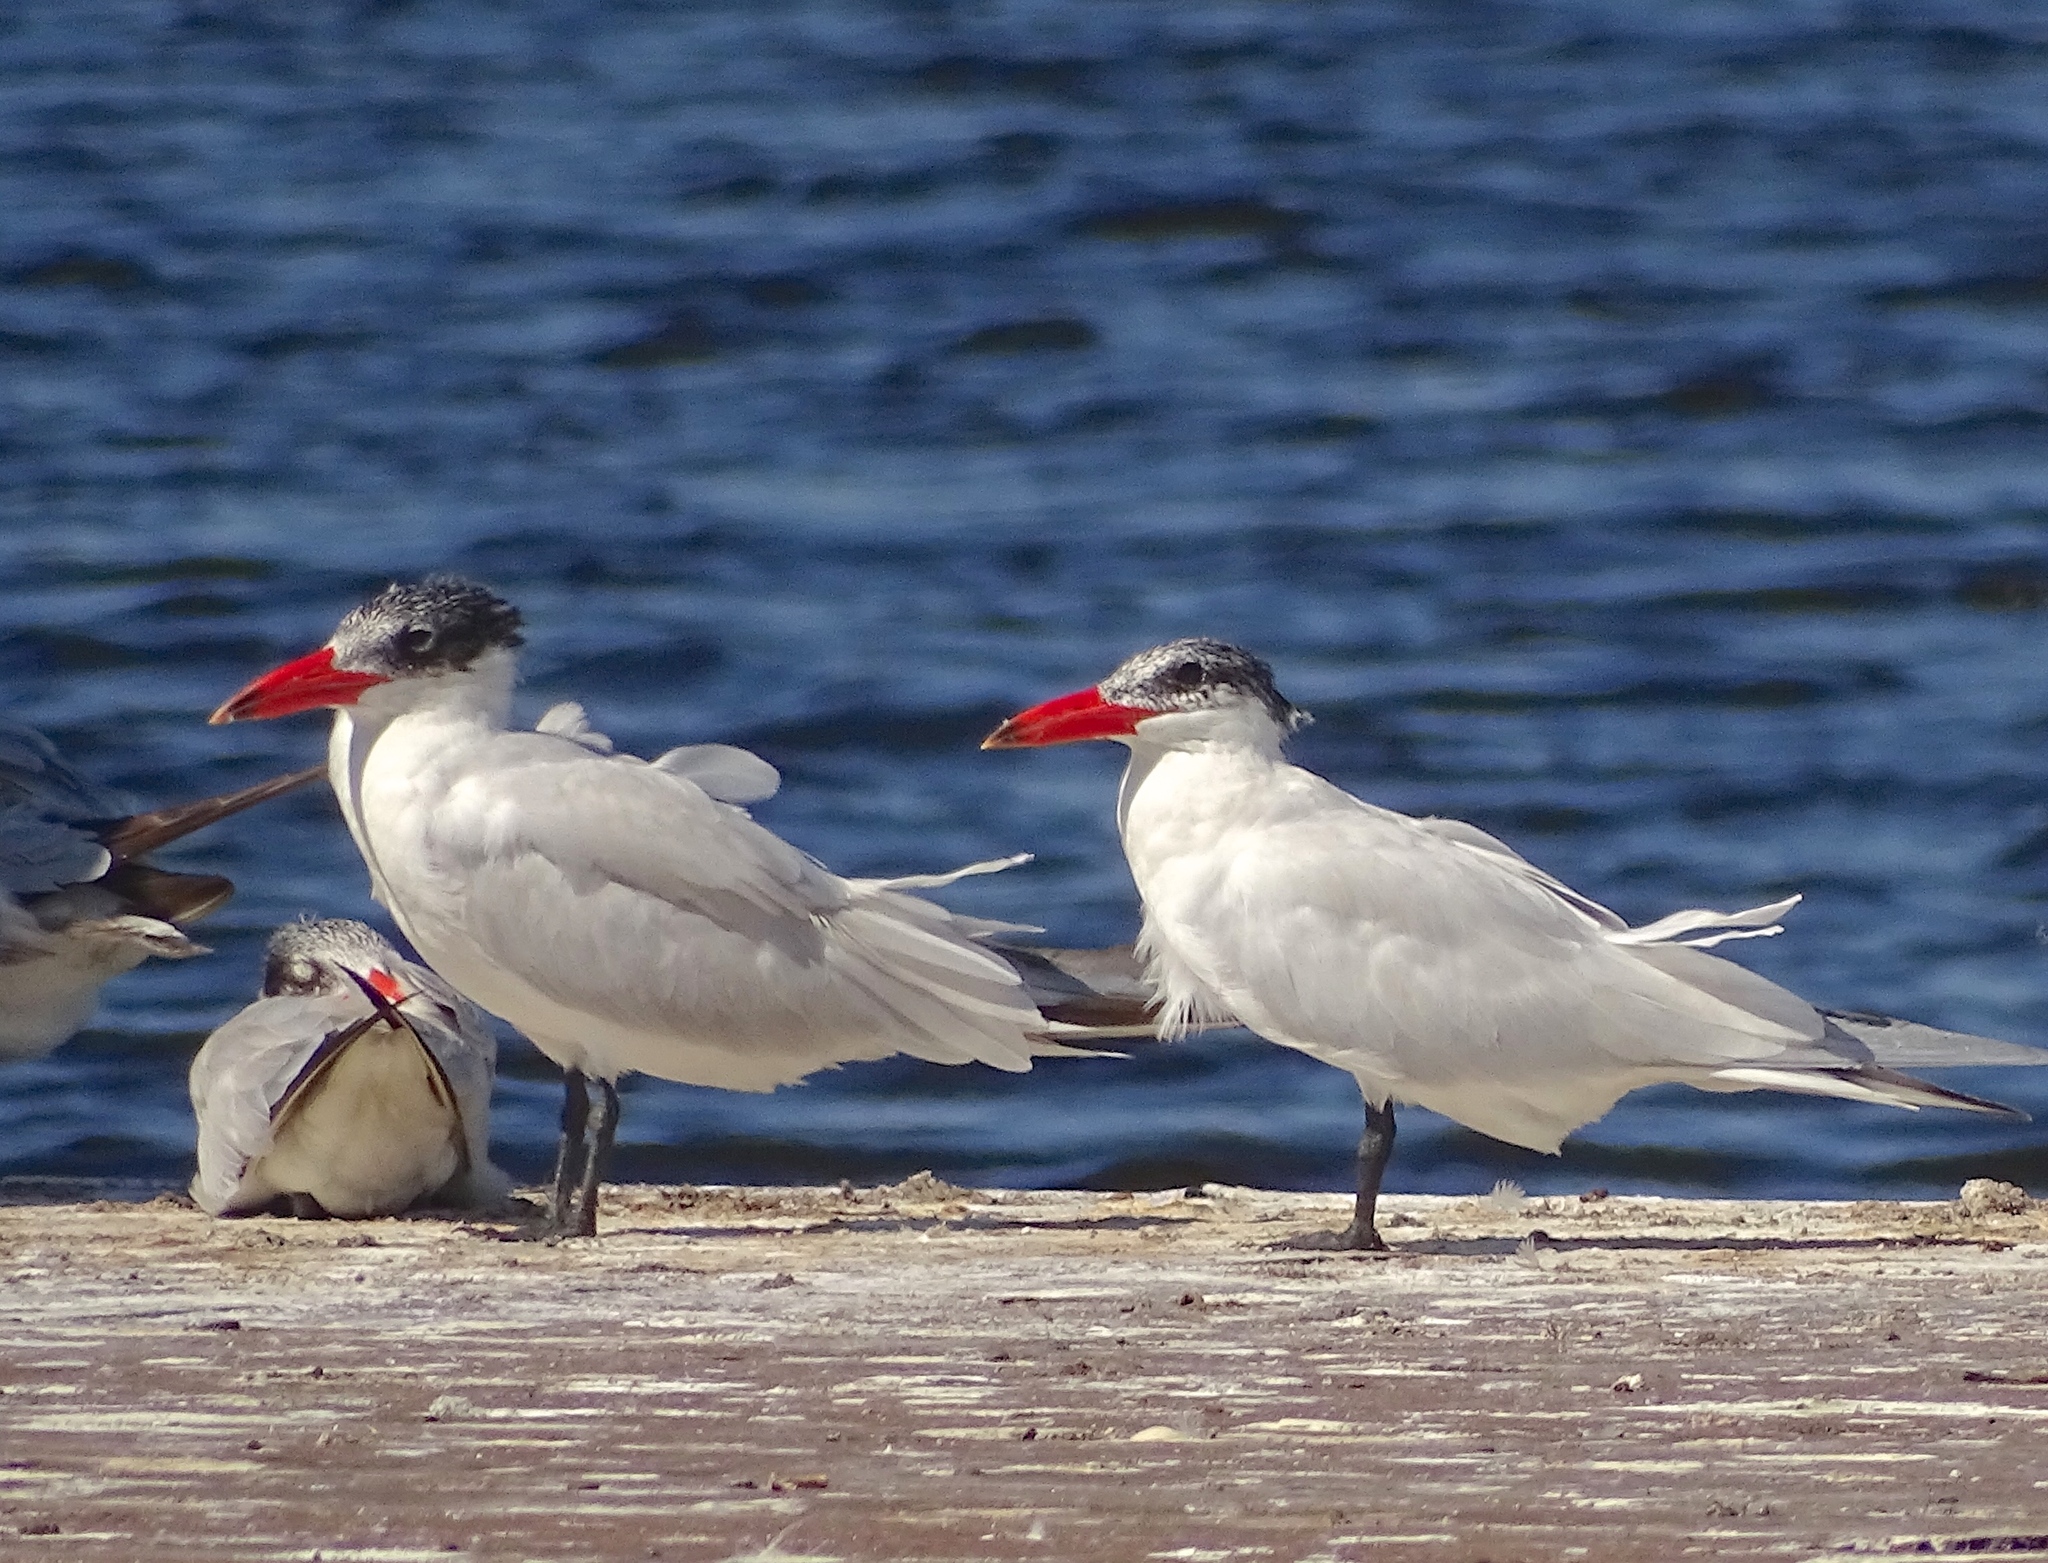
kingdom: Animalia
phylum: Chordata
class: Aves
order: Charadriiformes
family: Laridae
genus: Hydroprogne
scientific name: Hydroprogne caspia
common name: Caspian tern
